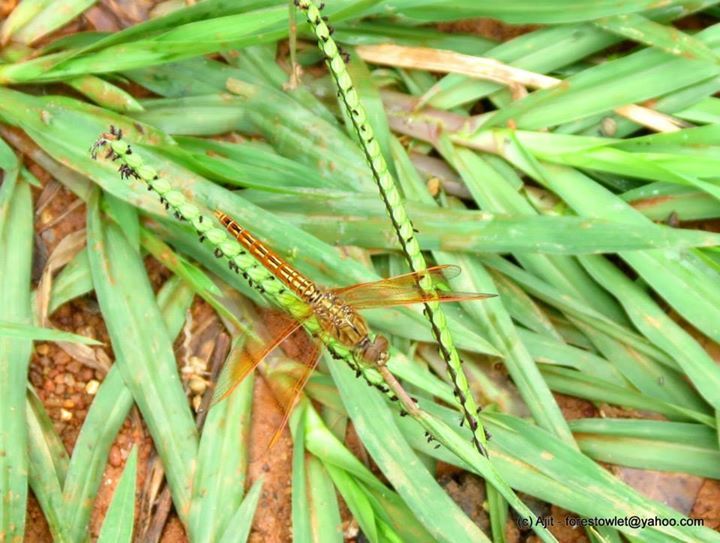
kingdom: Animalia
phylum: Arthropoda
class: Insecta
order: Odonata
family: Libellulidae
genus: Brachythemis
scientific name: Brachythemis contaminata
